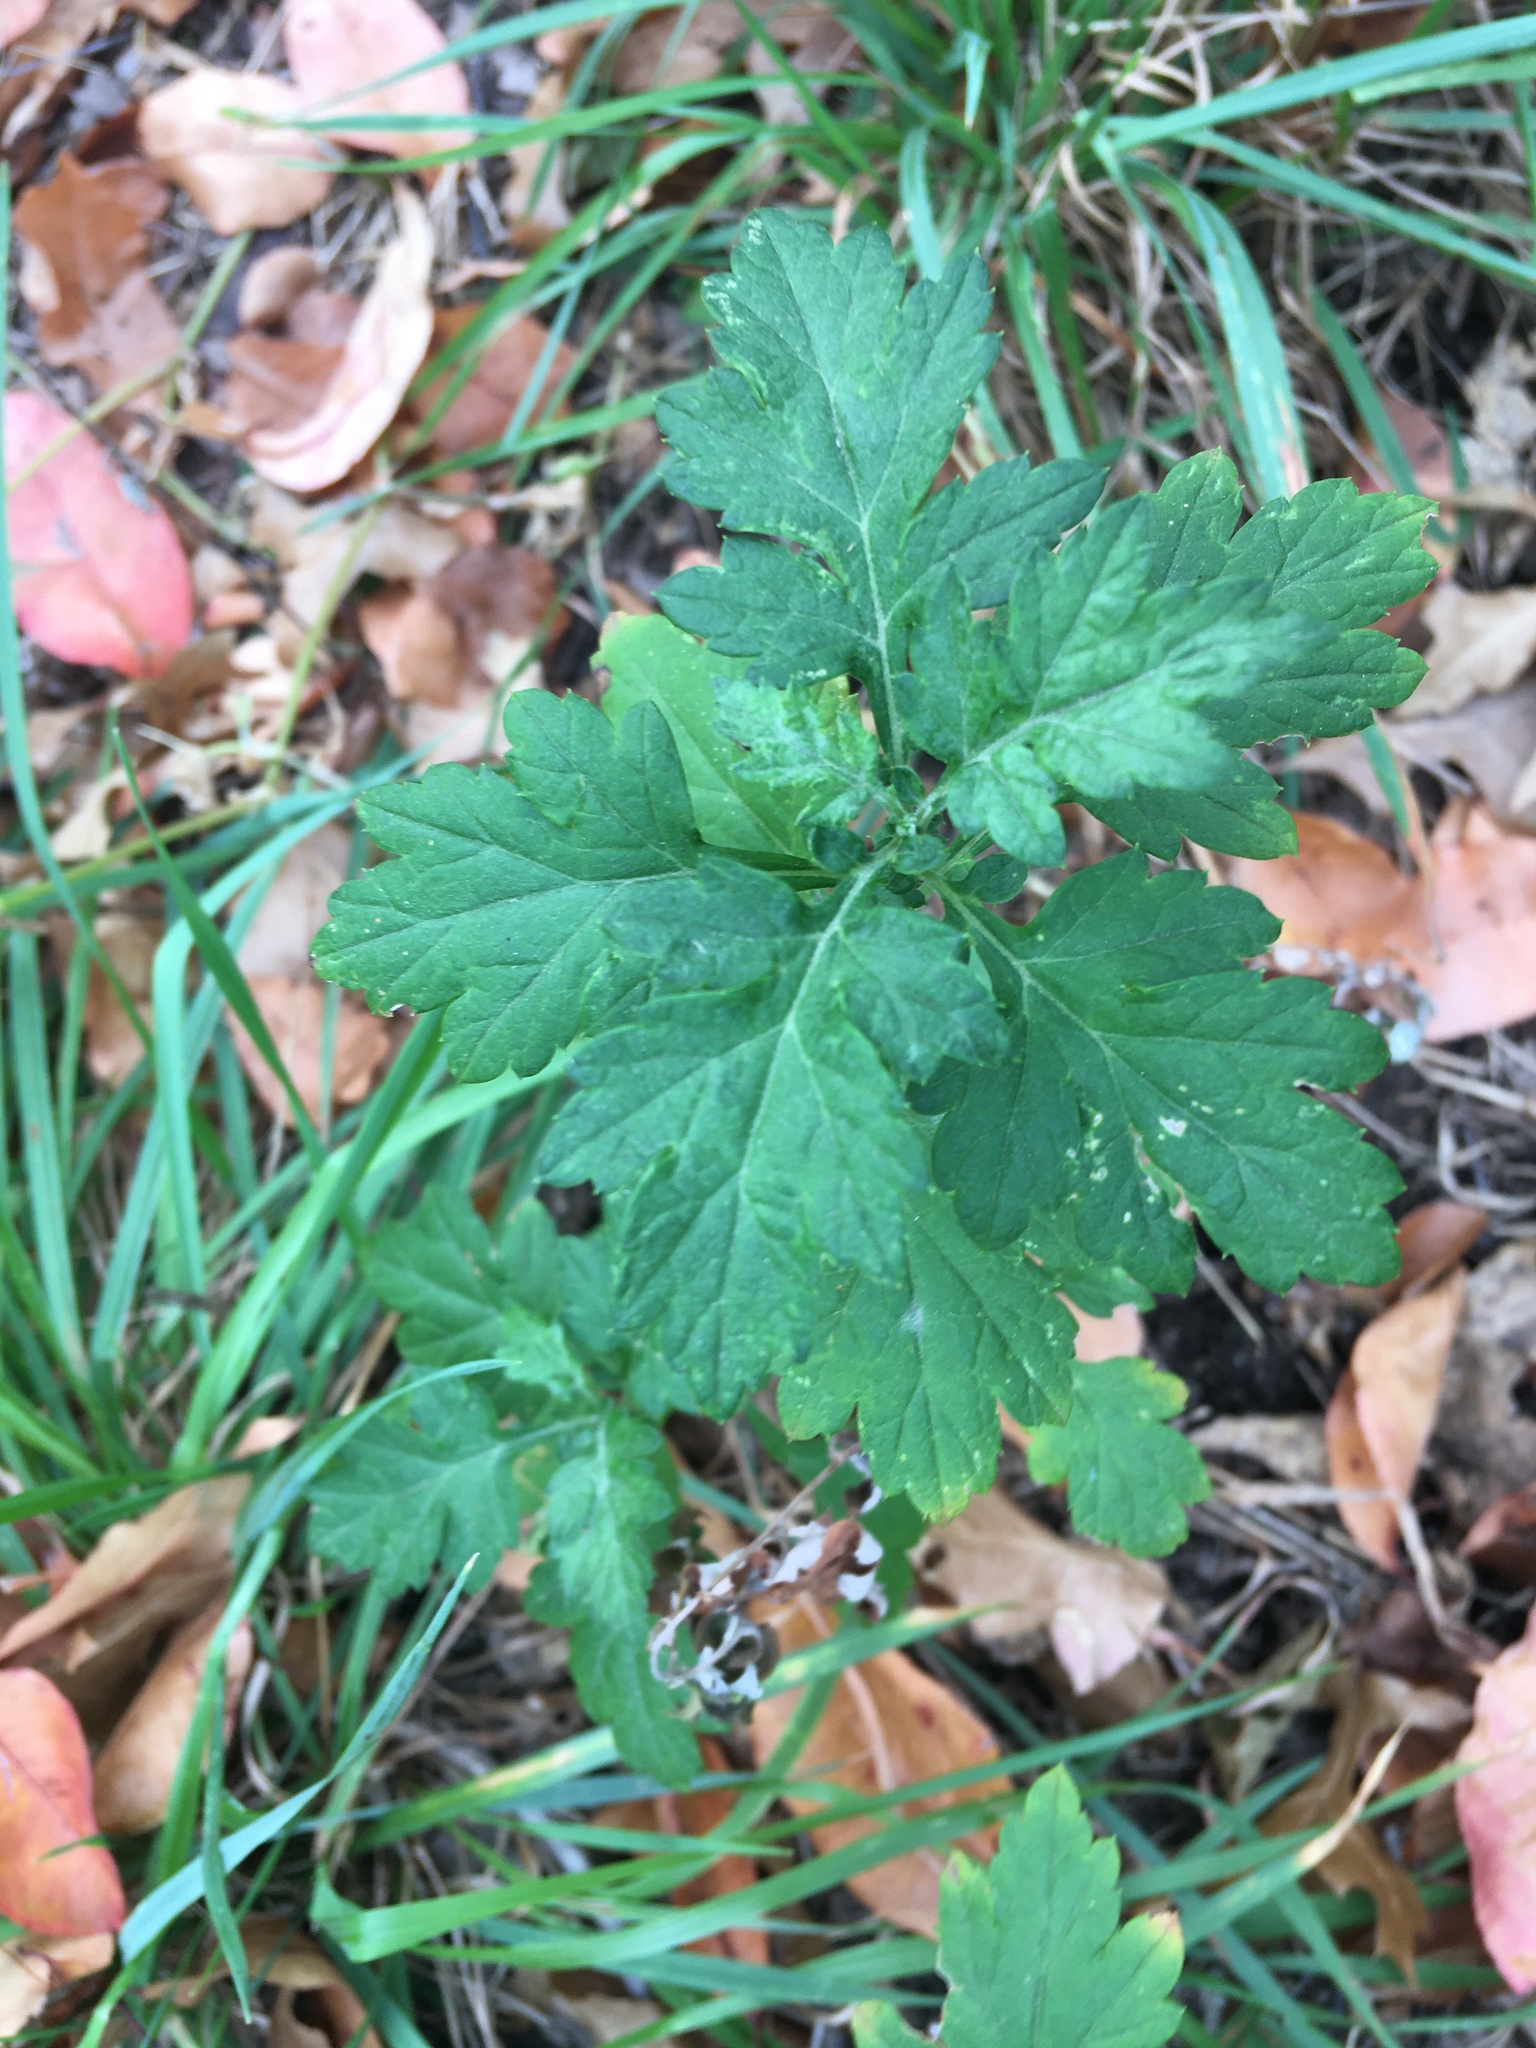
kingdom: Plantae
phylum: Tracheophyta
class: Magnoliopsida
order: Asterales
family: Asteraceae
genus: Artemisia
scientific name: Artemisia vulgaris
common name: Mugwort
